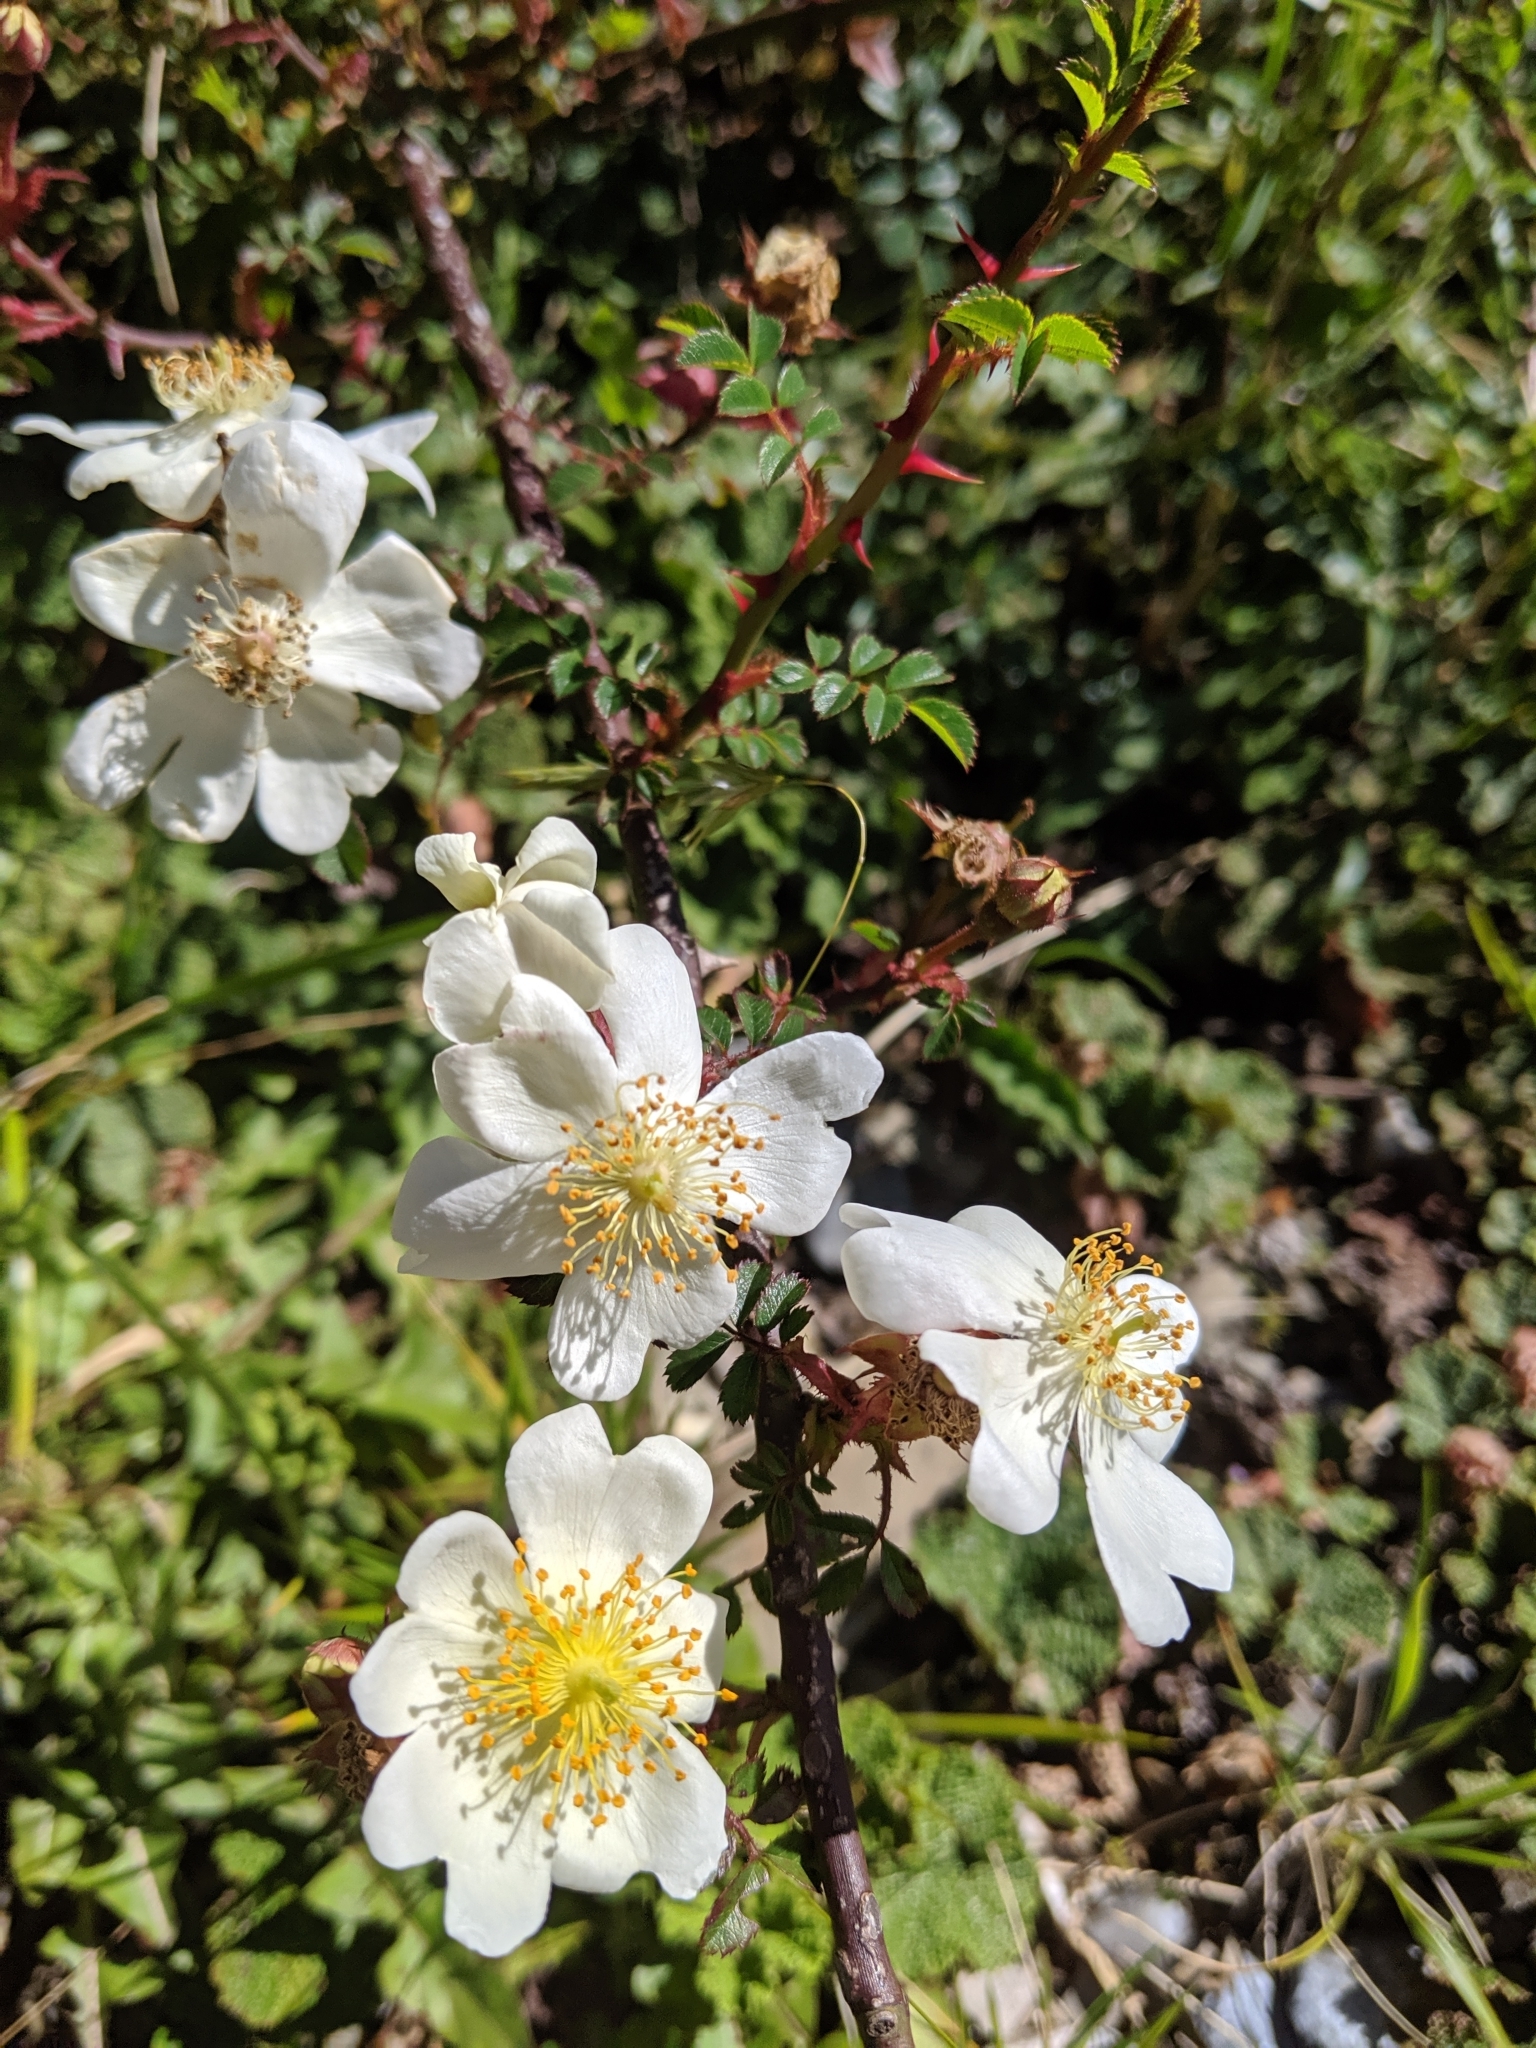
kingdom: Plantae
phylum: Tracheophyta
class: Magnoliopsida
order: Rosales
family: Rosaceae
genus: Rosa
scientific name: Rosa transmorrisonensis
